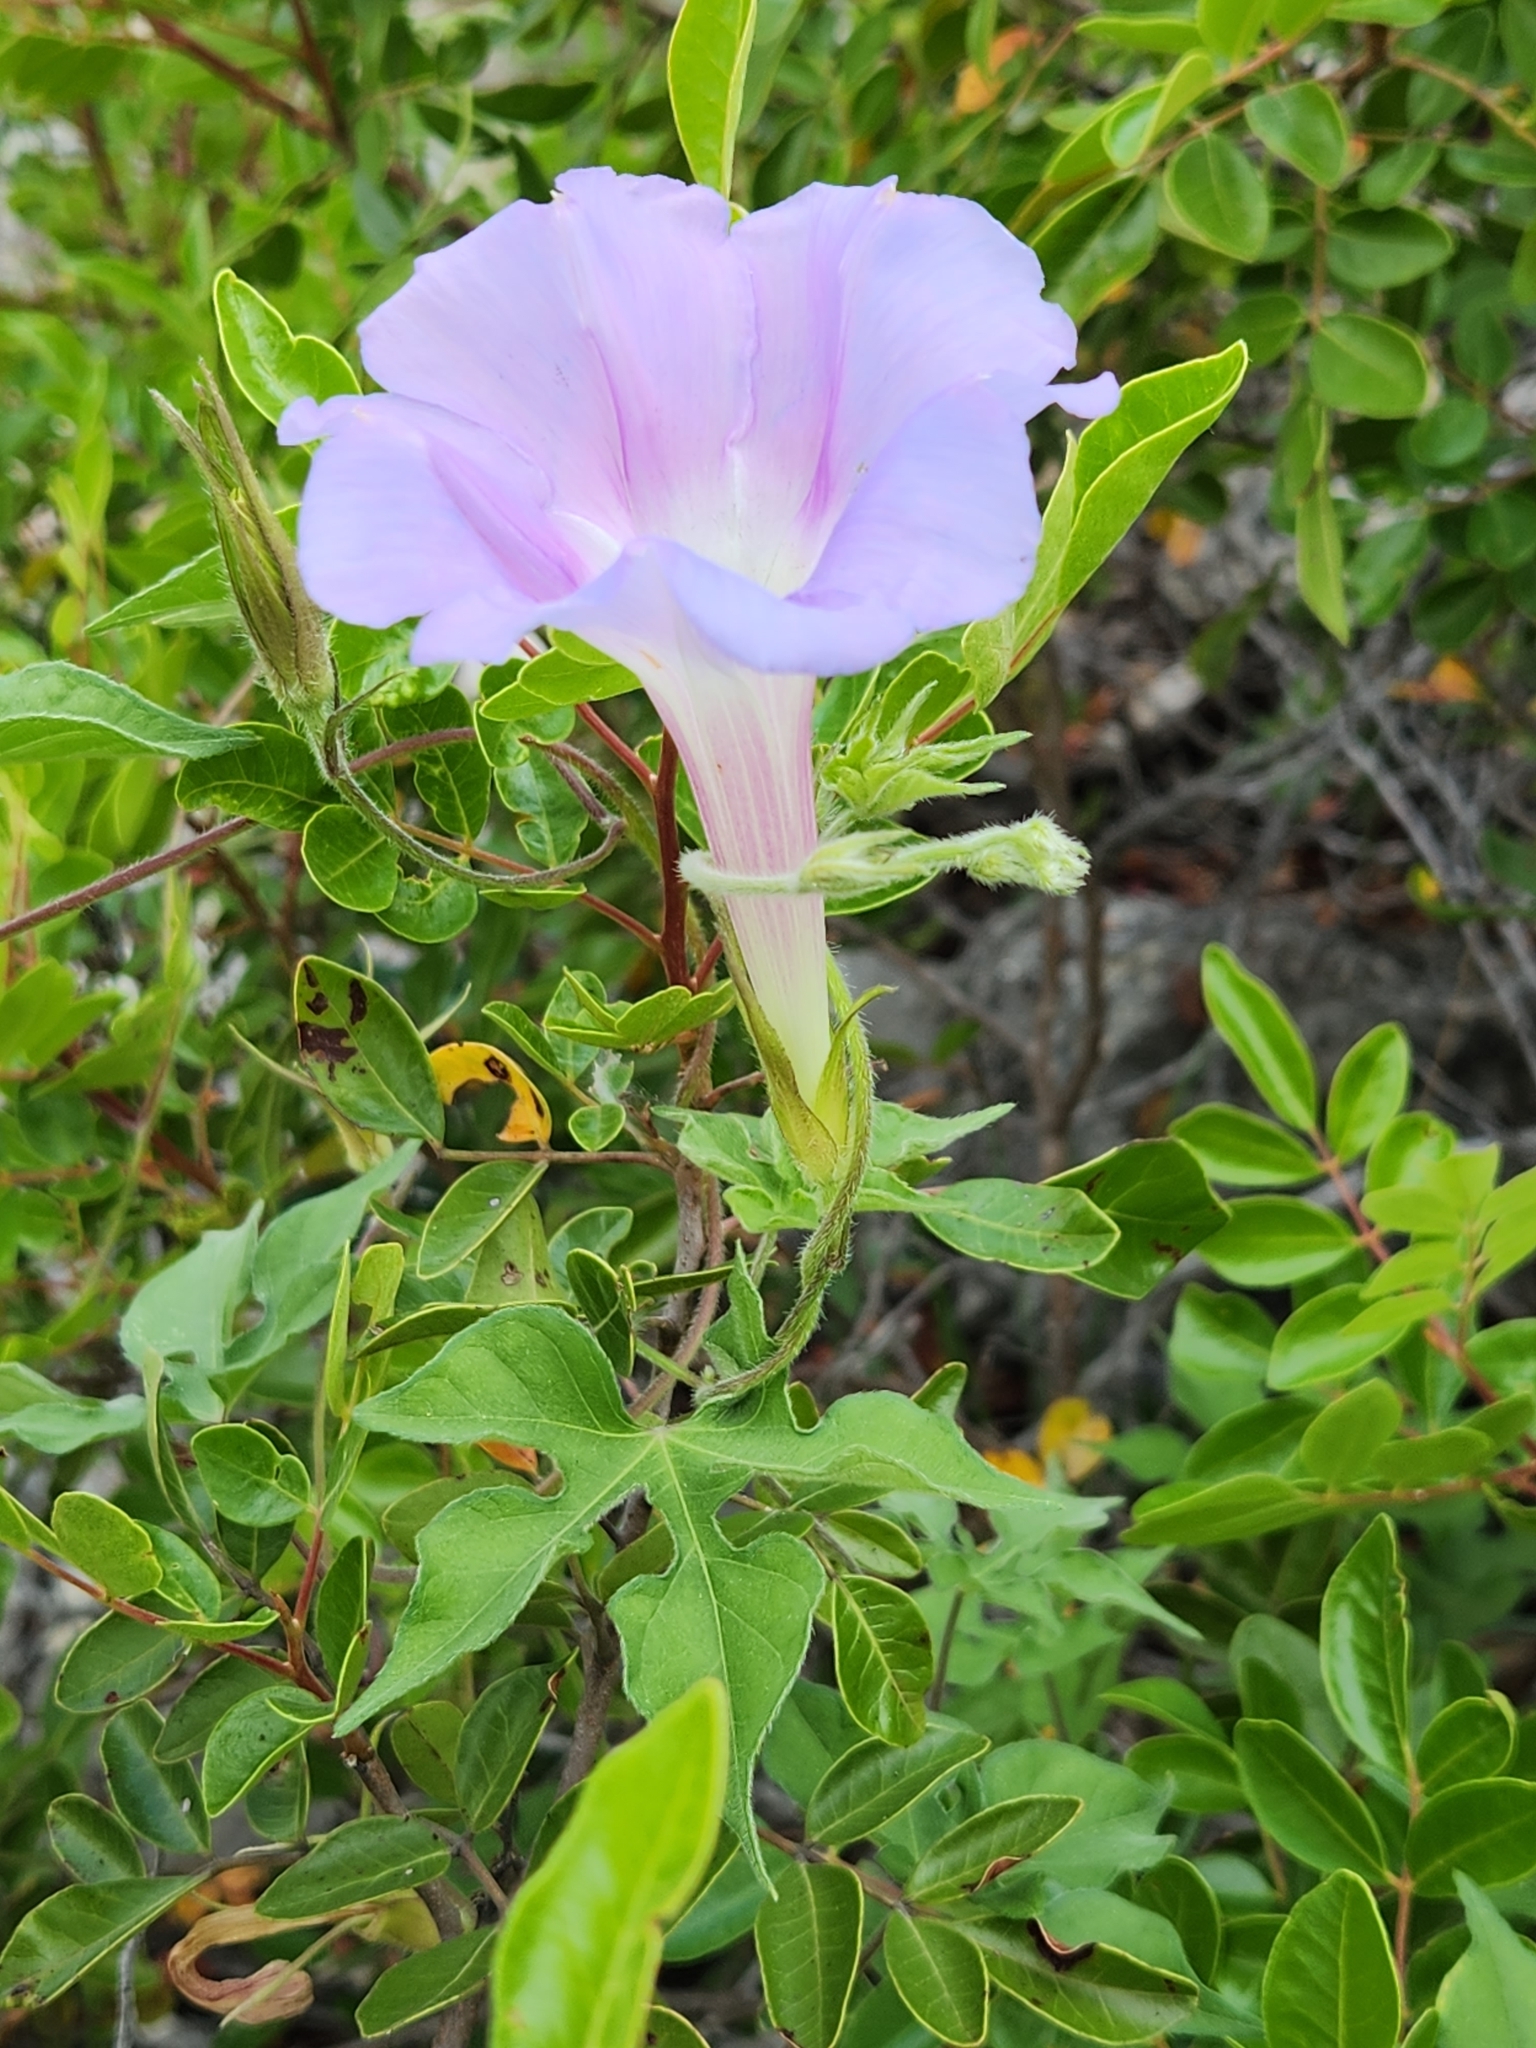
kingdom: Plantae
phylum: Tracheophyta
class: Magnoliopsida
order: Solanales
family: Convolvulaceae
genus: Ipomoea
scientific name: Ipomoea lindheimeri
